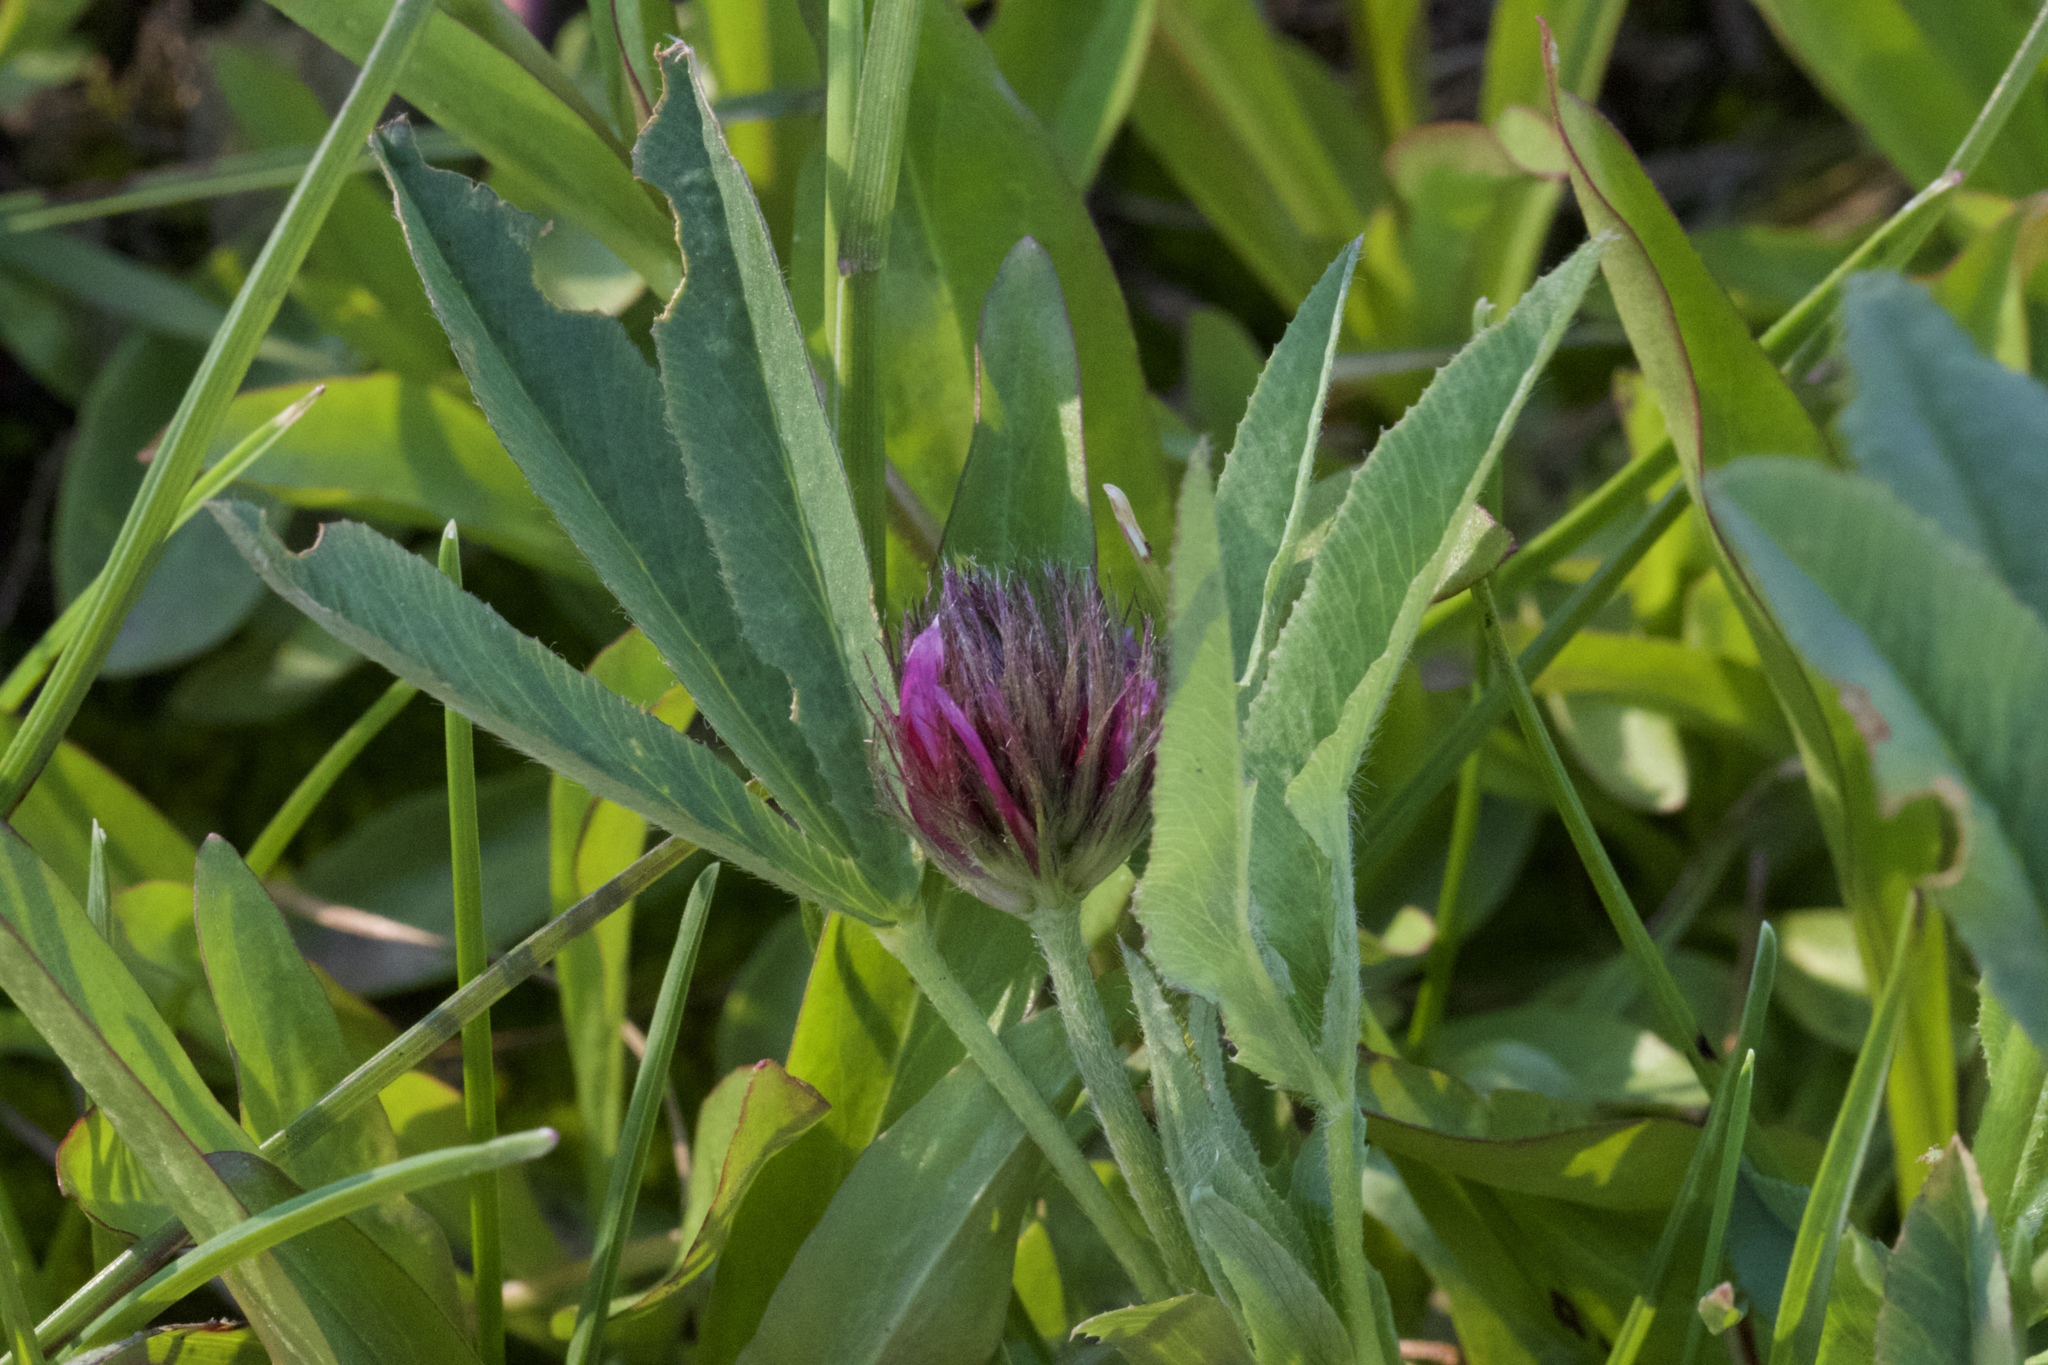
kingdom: Plantae
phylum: Tracheophyta
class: Magnoliopsida
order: Fabales
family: Fabaceae
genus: Trifolium
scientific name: Trifolium longipes
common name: Long-stalk clover
